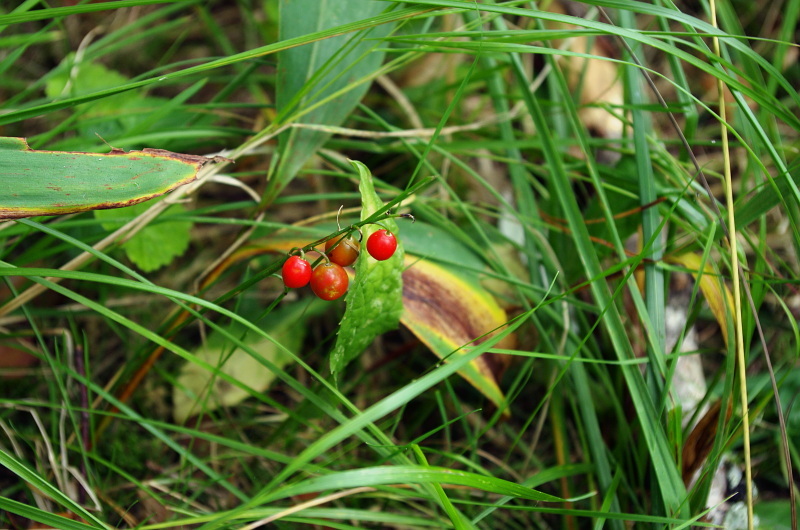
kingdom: Plantae
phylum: Tracheophyta
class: Liliopsida
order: Asparagales
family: Asparagaceae
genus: Convallaria
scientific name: Convallaria majalis
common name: Lily-of-the-valley
